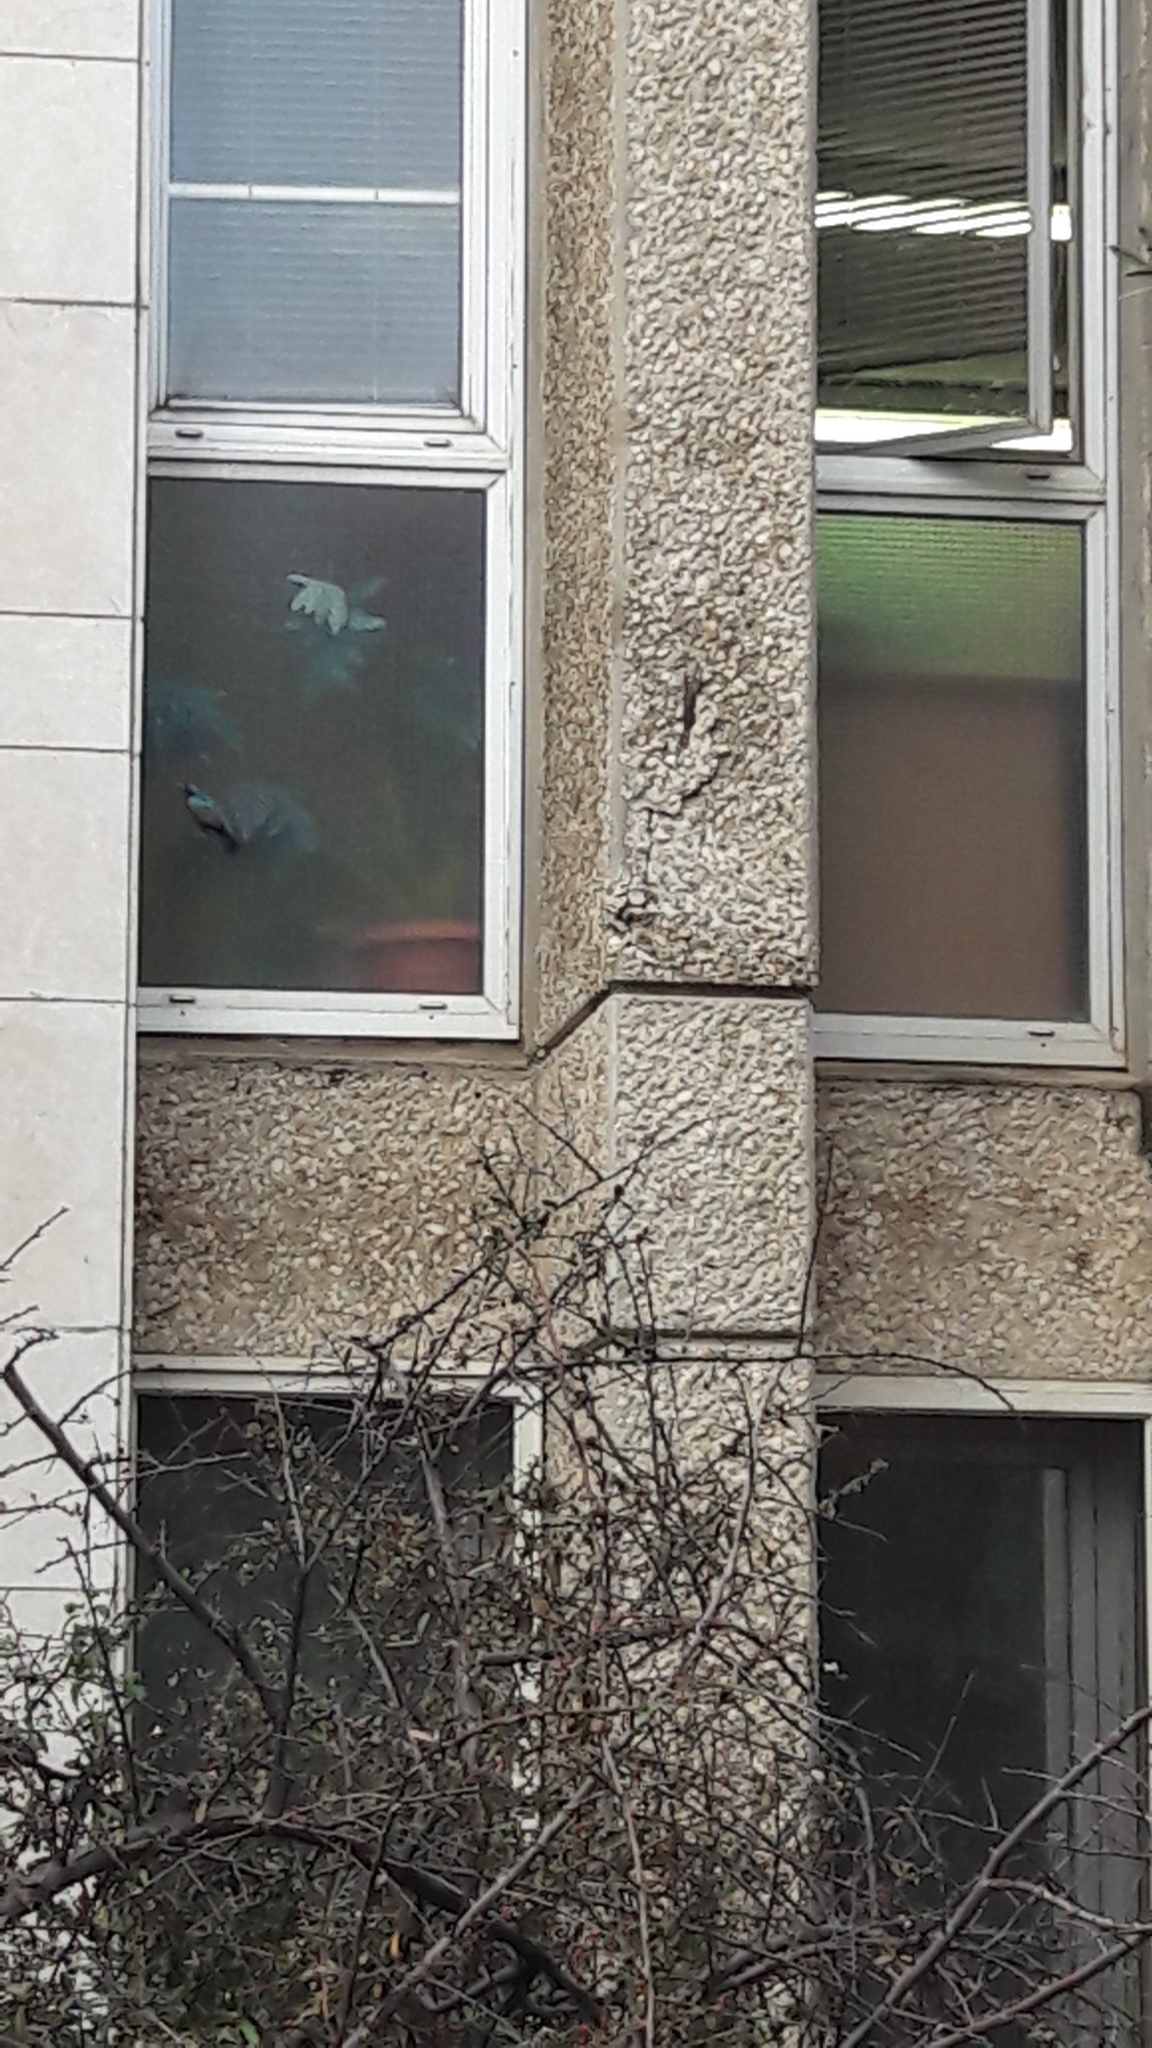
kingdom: Animalia
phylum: Chordata
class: Aves
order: Passeriformes
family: Nectariniidae
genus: Cinnyris
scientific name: Cinnyris osea
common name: Palestine sunbird
